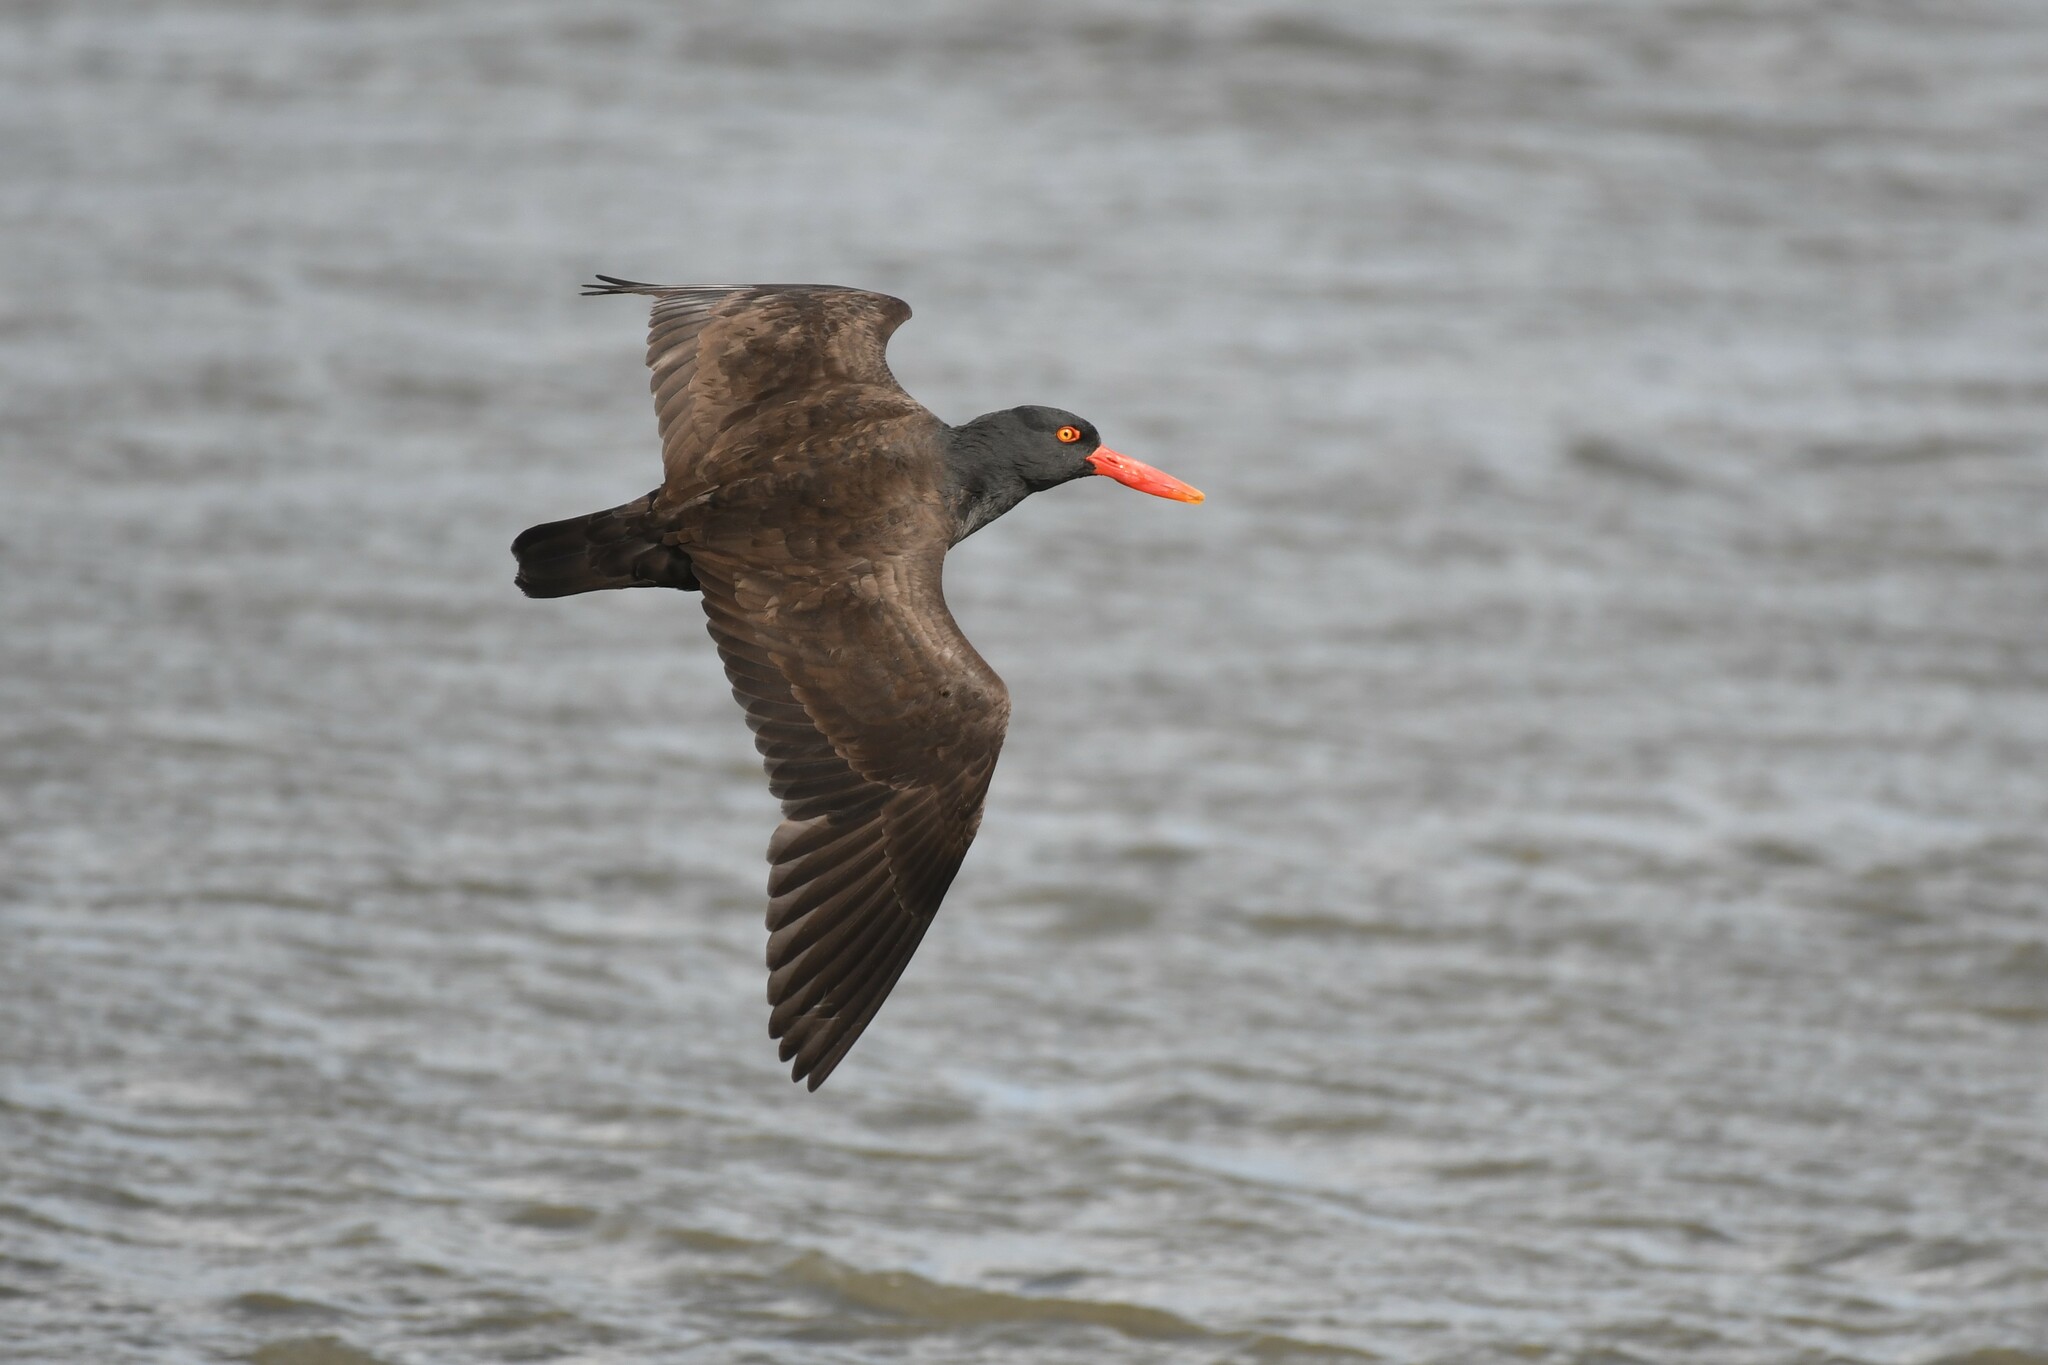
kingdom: Animalia
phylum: Chordata
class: Aves
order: Charadriiformes
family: Haematopodidae
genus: Haematopus
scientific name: Haematopus ater
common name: Blackish oystercatcher
